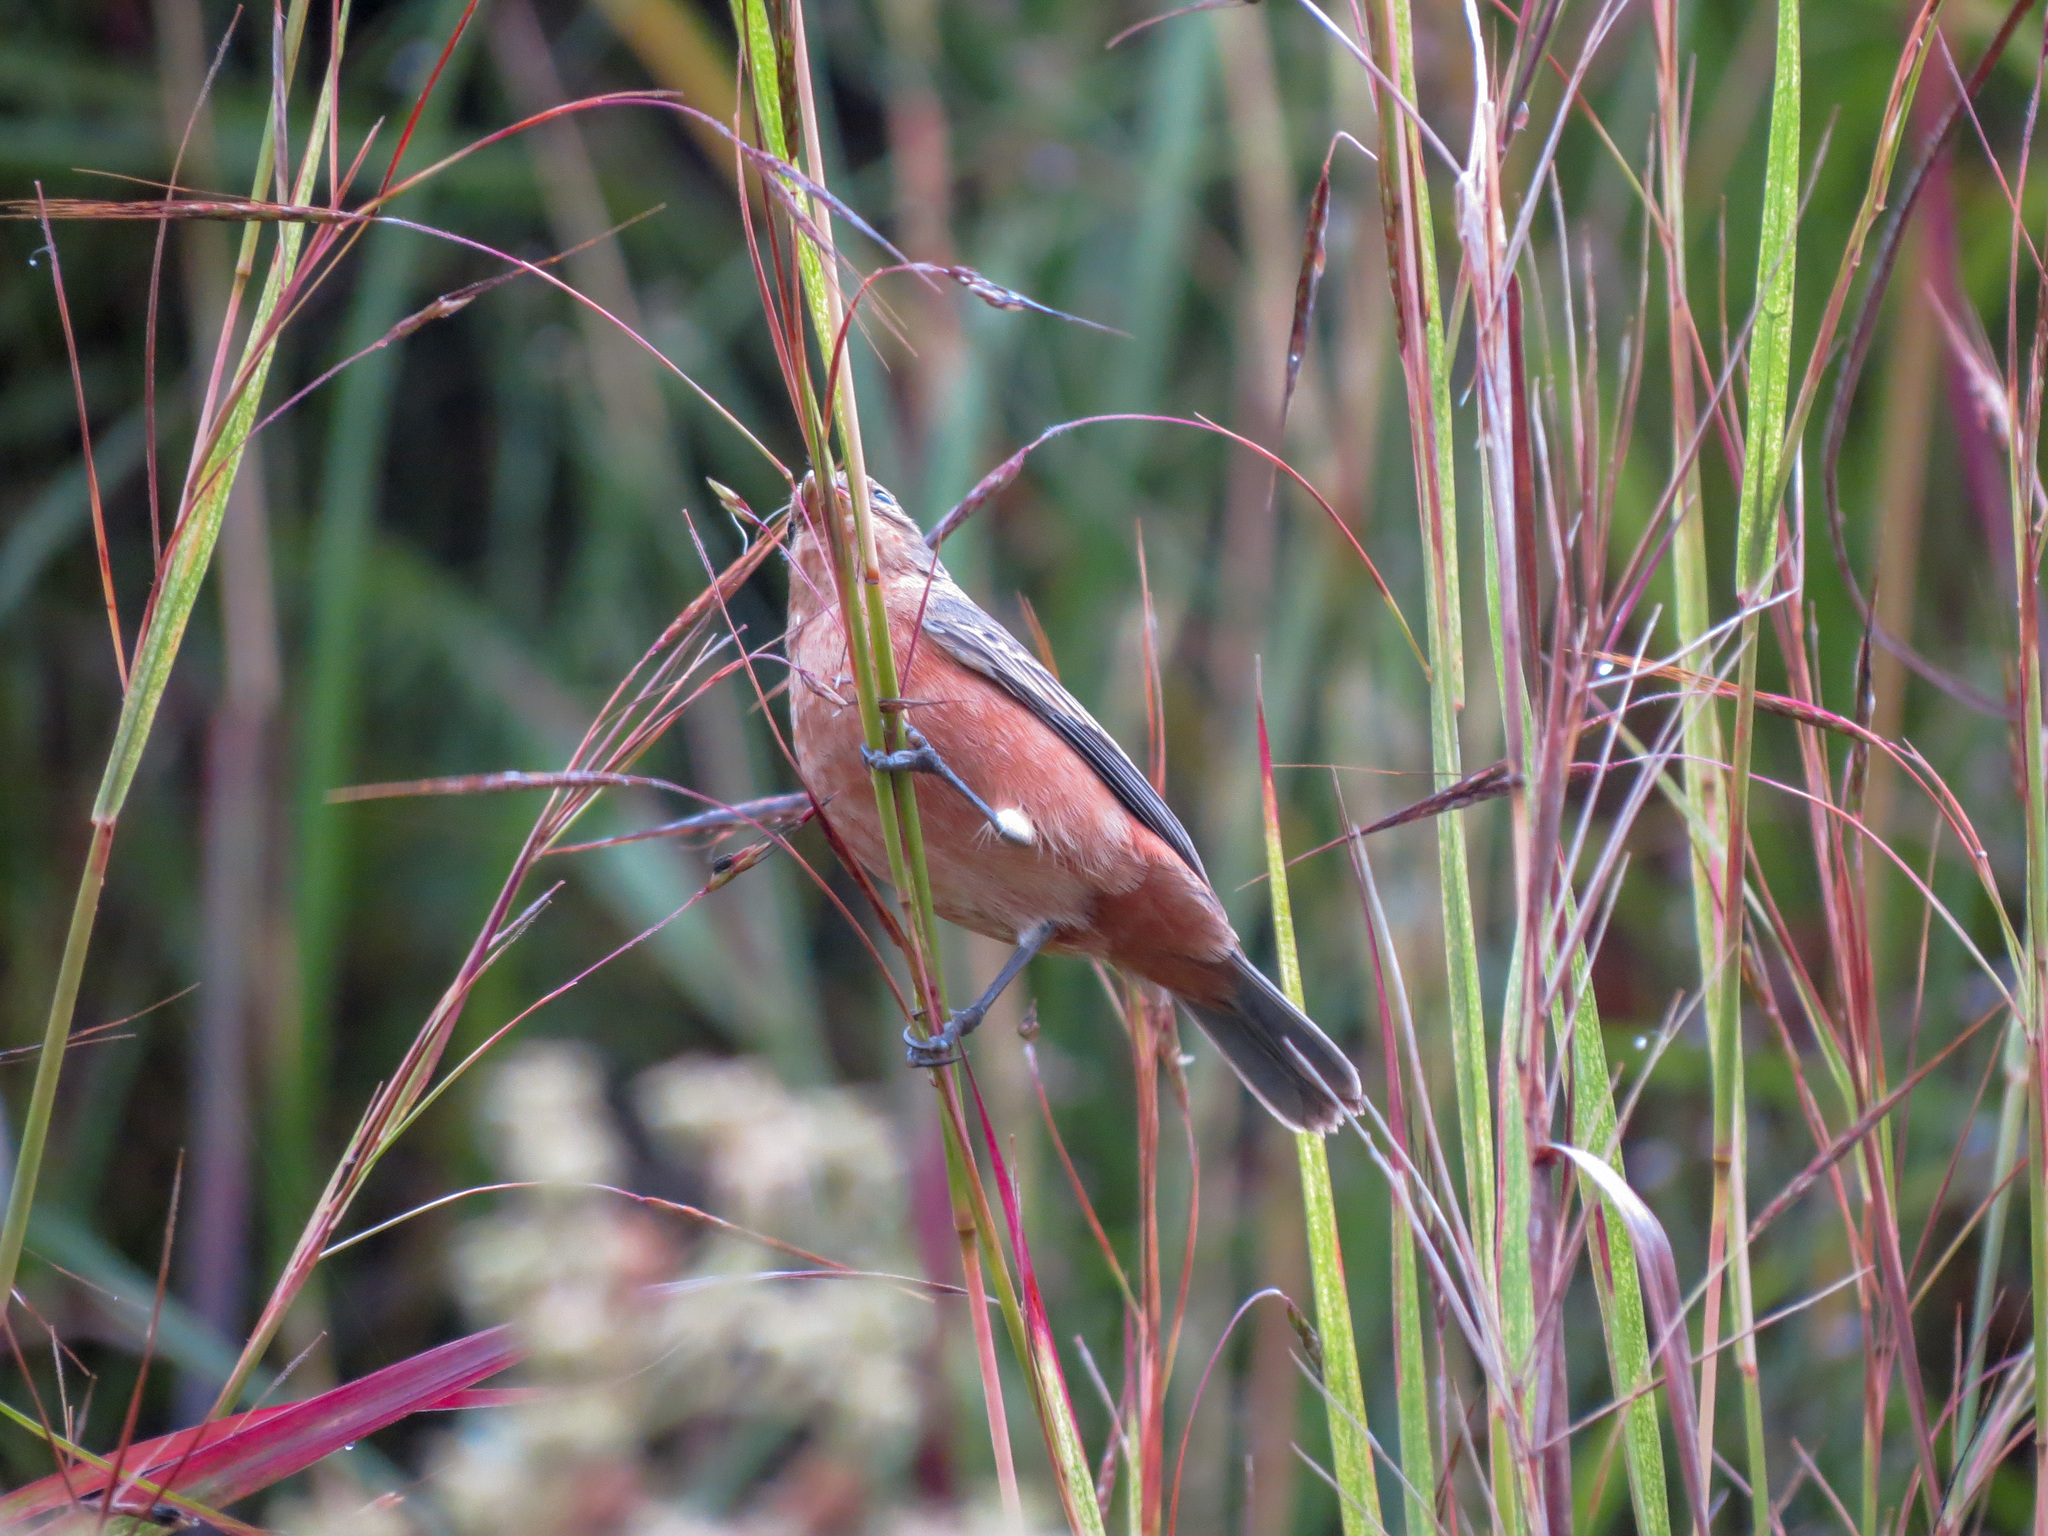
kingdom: Animalia
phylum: Chordata
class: Aves
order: Passeriformes
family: Thraupidae
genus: Sporophila
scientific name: Sporophila minuta
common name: Ruddy-breasted seedeater
